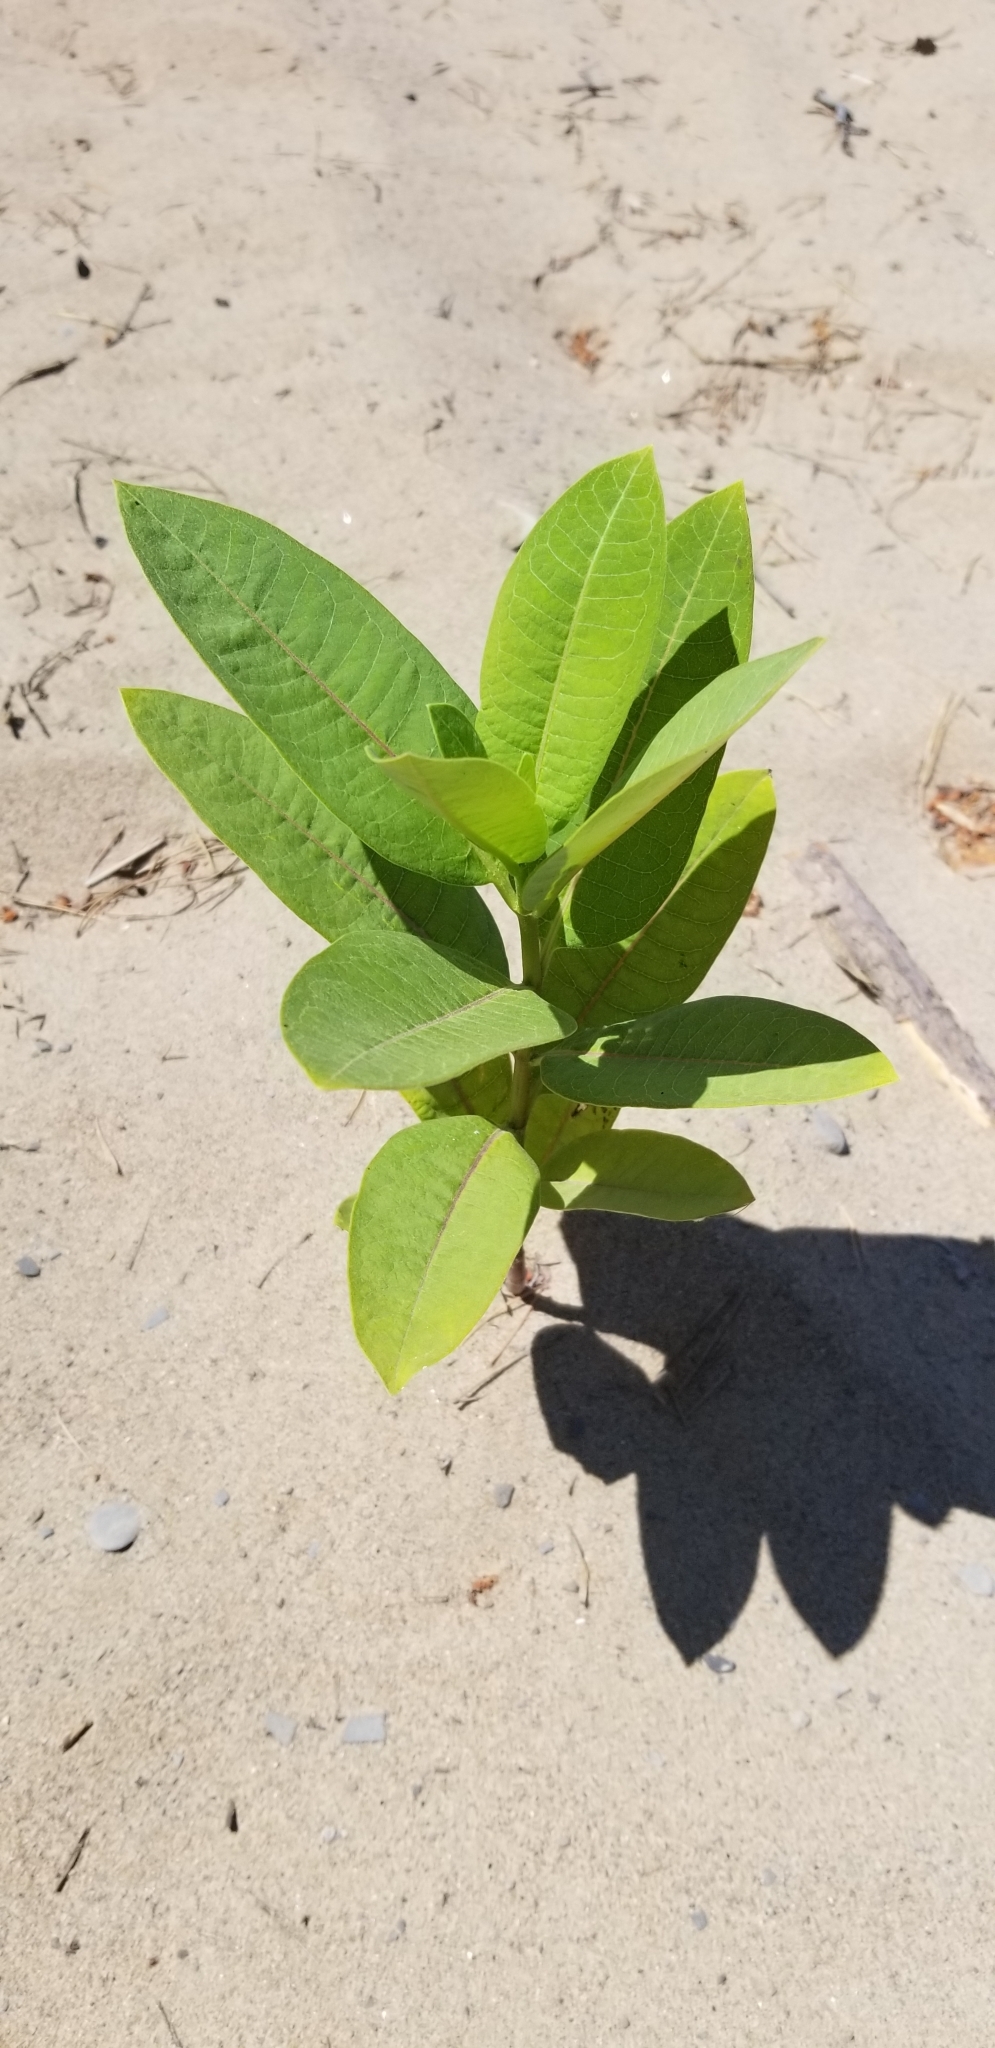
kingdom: Plantae
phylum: Tracheophyta
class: Magnoliopsida
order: Gentianales
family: Apocynaceae
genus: Asclepias
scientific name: Asclepias syriaca
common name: Common milkweed
